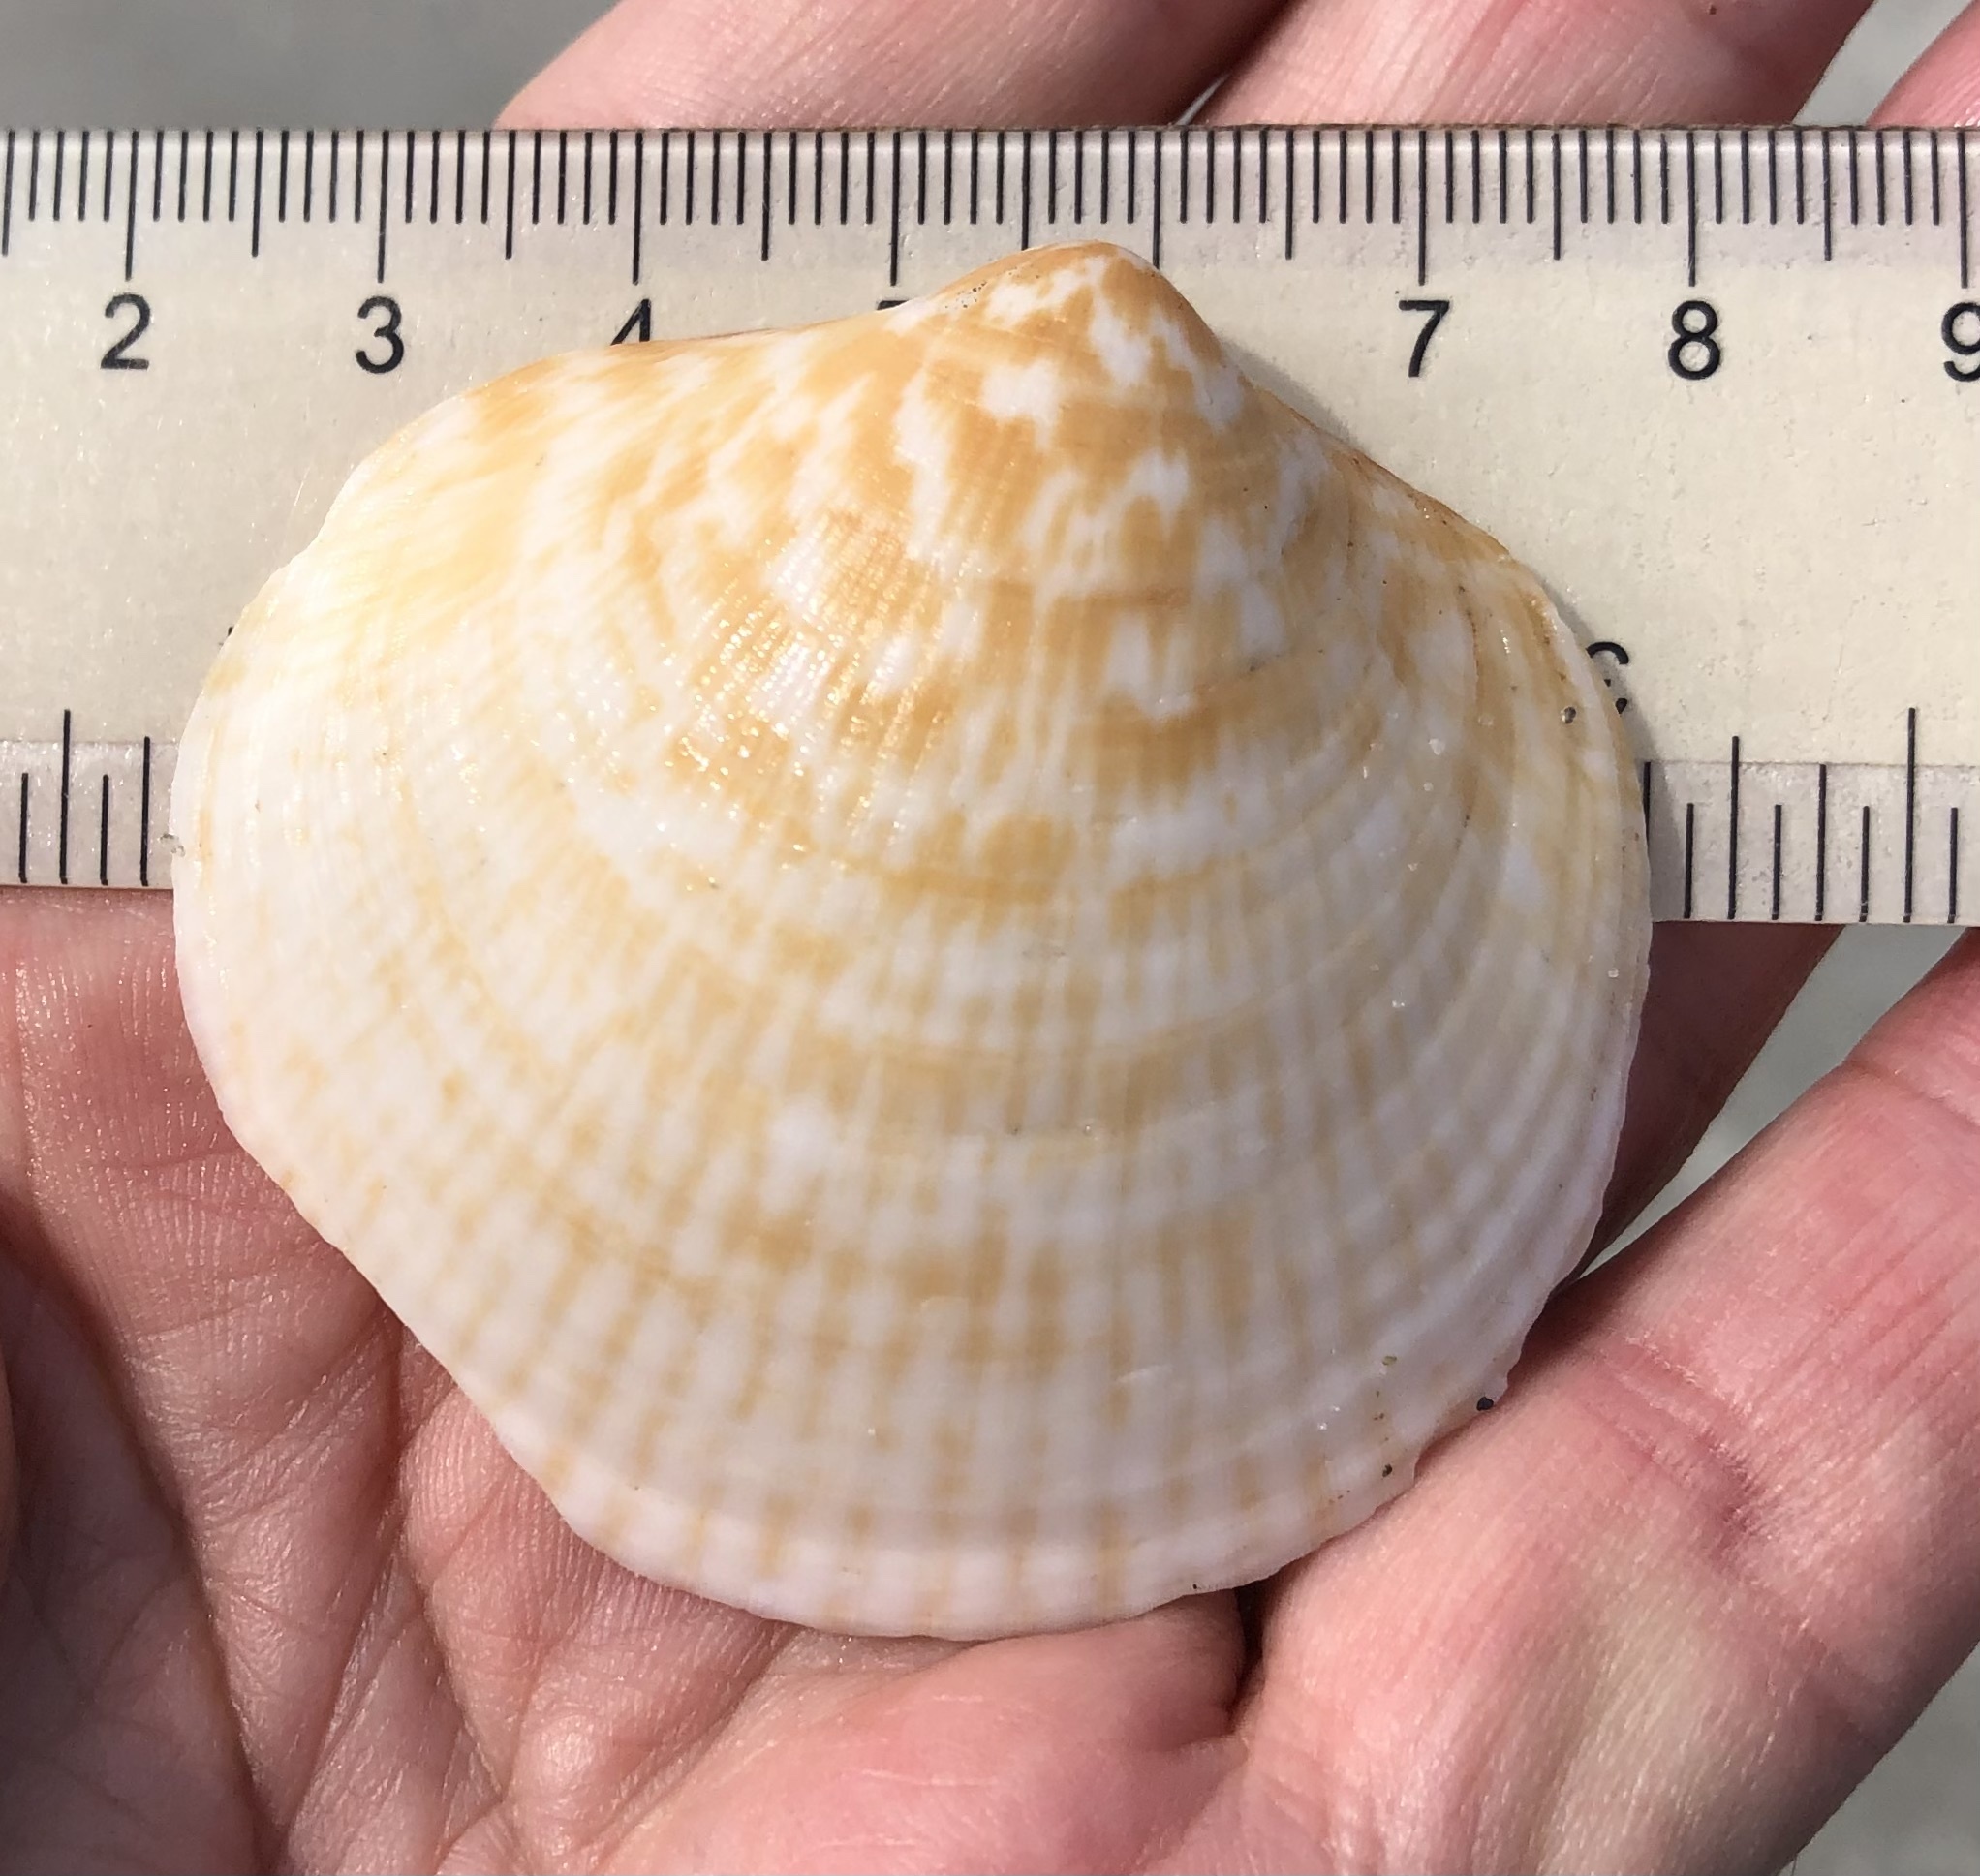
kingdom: Animalia
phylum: Mollusca
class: Bivalvia
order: Arcida
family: Glycymerididae
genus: Glycymeris
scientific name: Glycymeris americana
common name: American bittersweet
